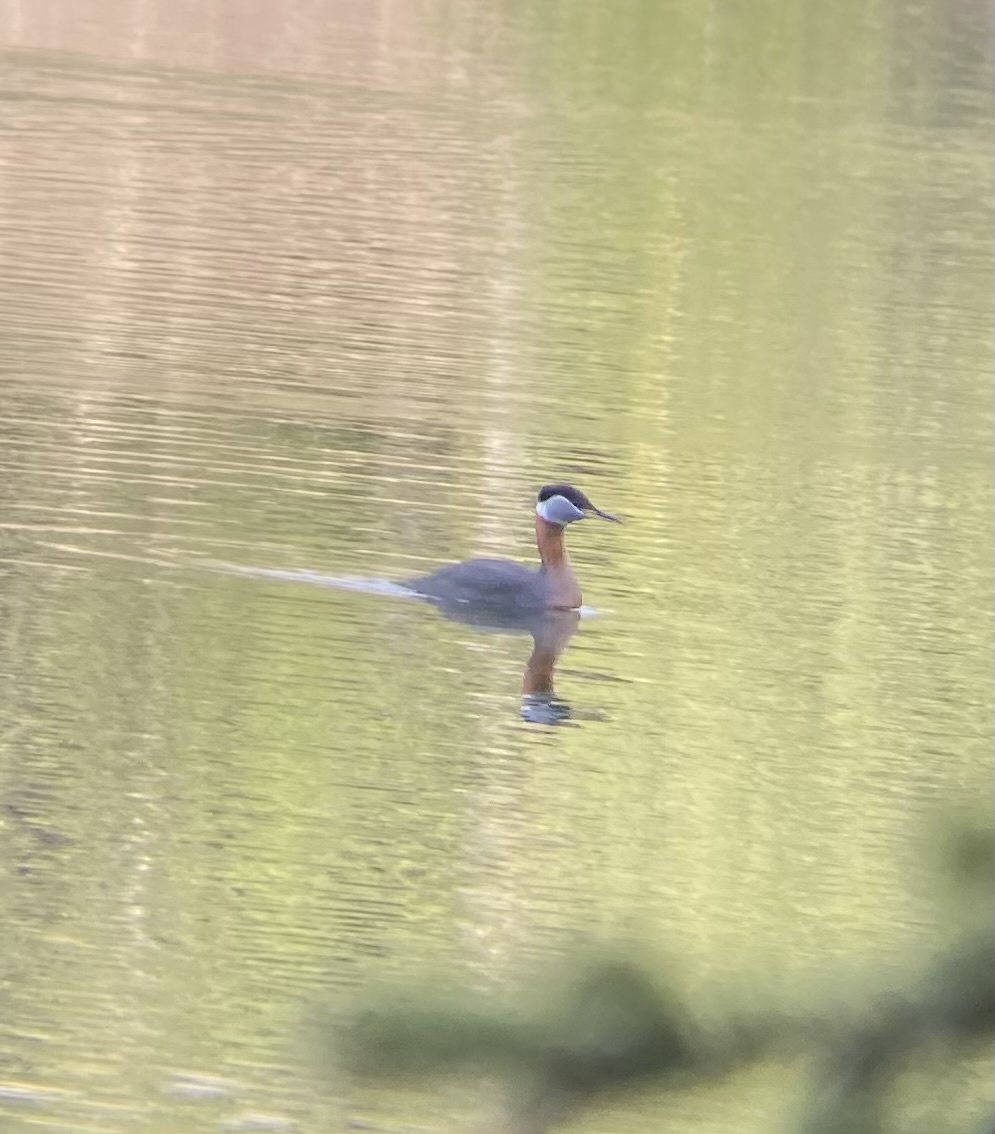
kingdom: Animalia
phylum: Chordata
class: Aves
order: Podicipediformes
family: Podicipedidae
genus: Podiceps
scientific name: Podiceps grisegena
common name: Red-necked grebe
